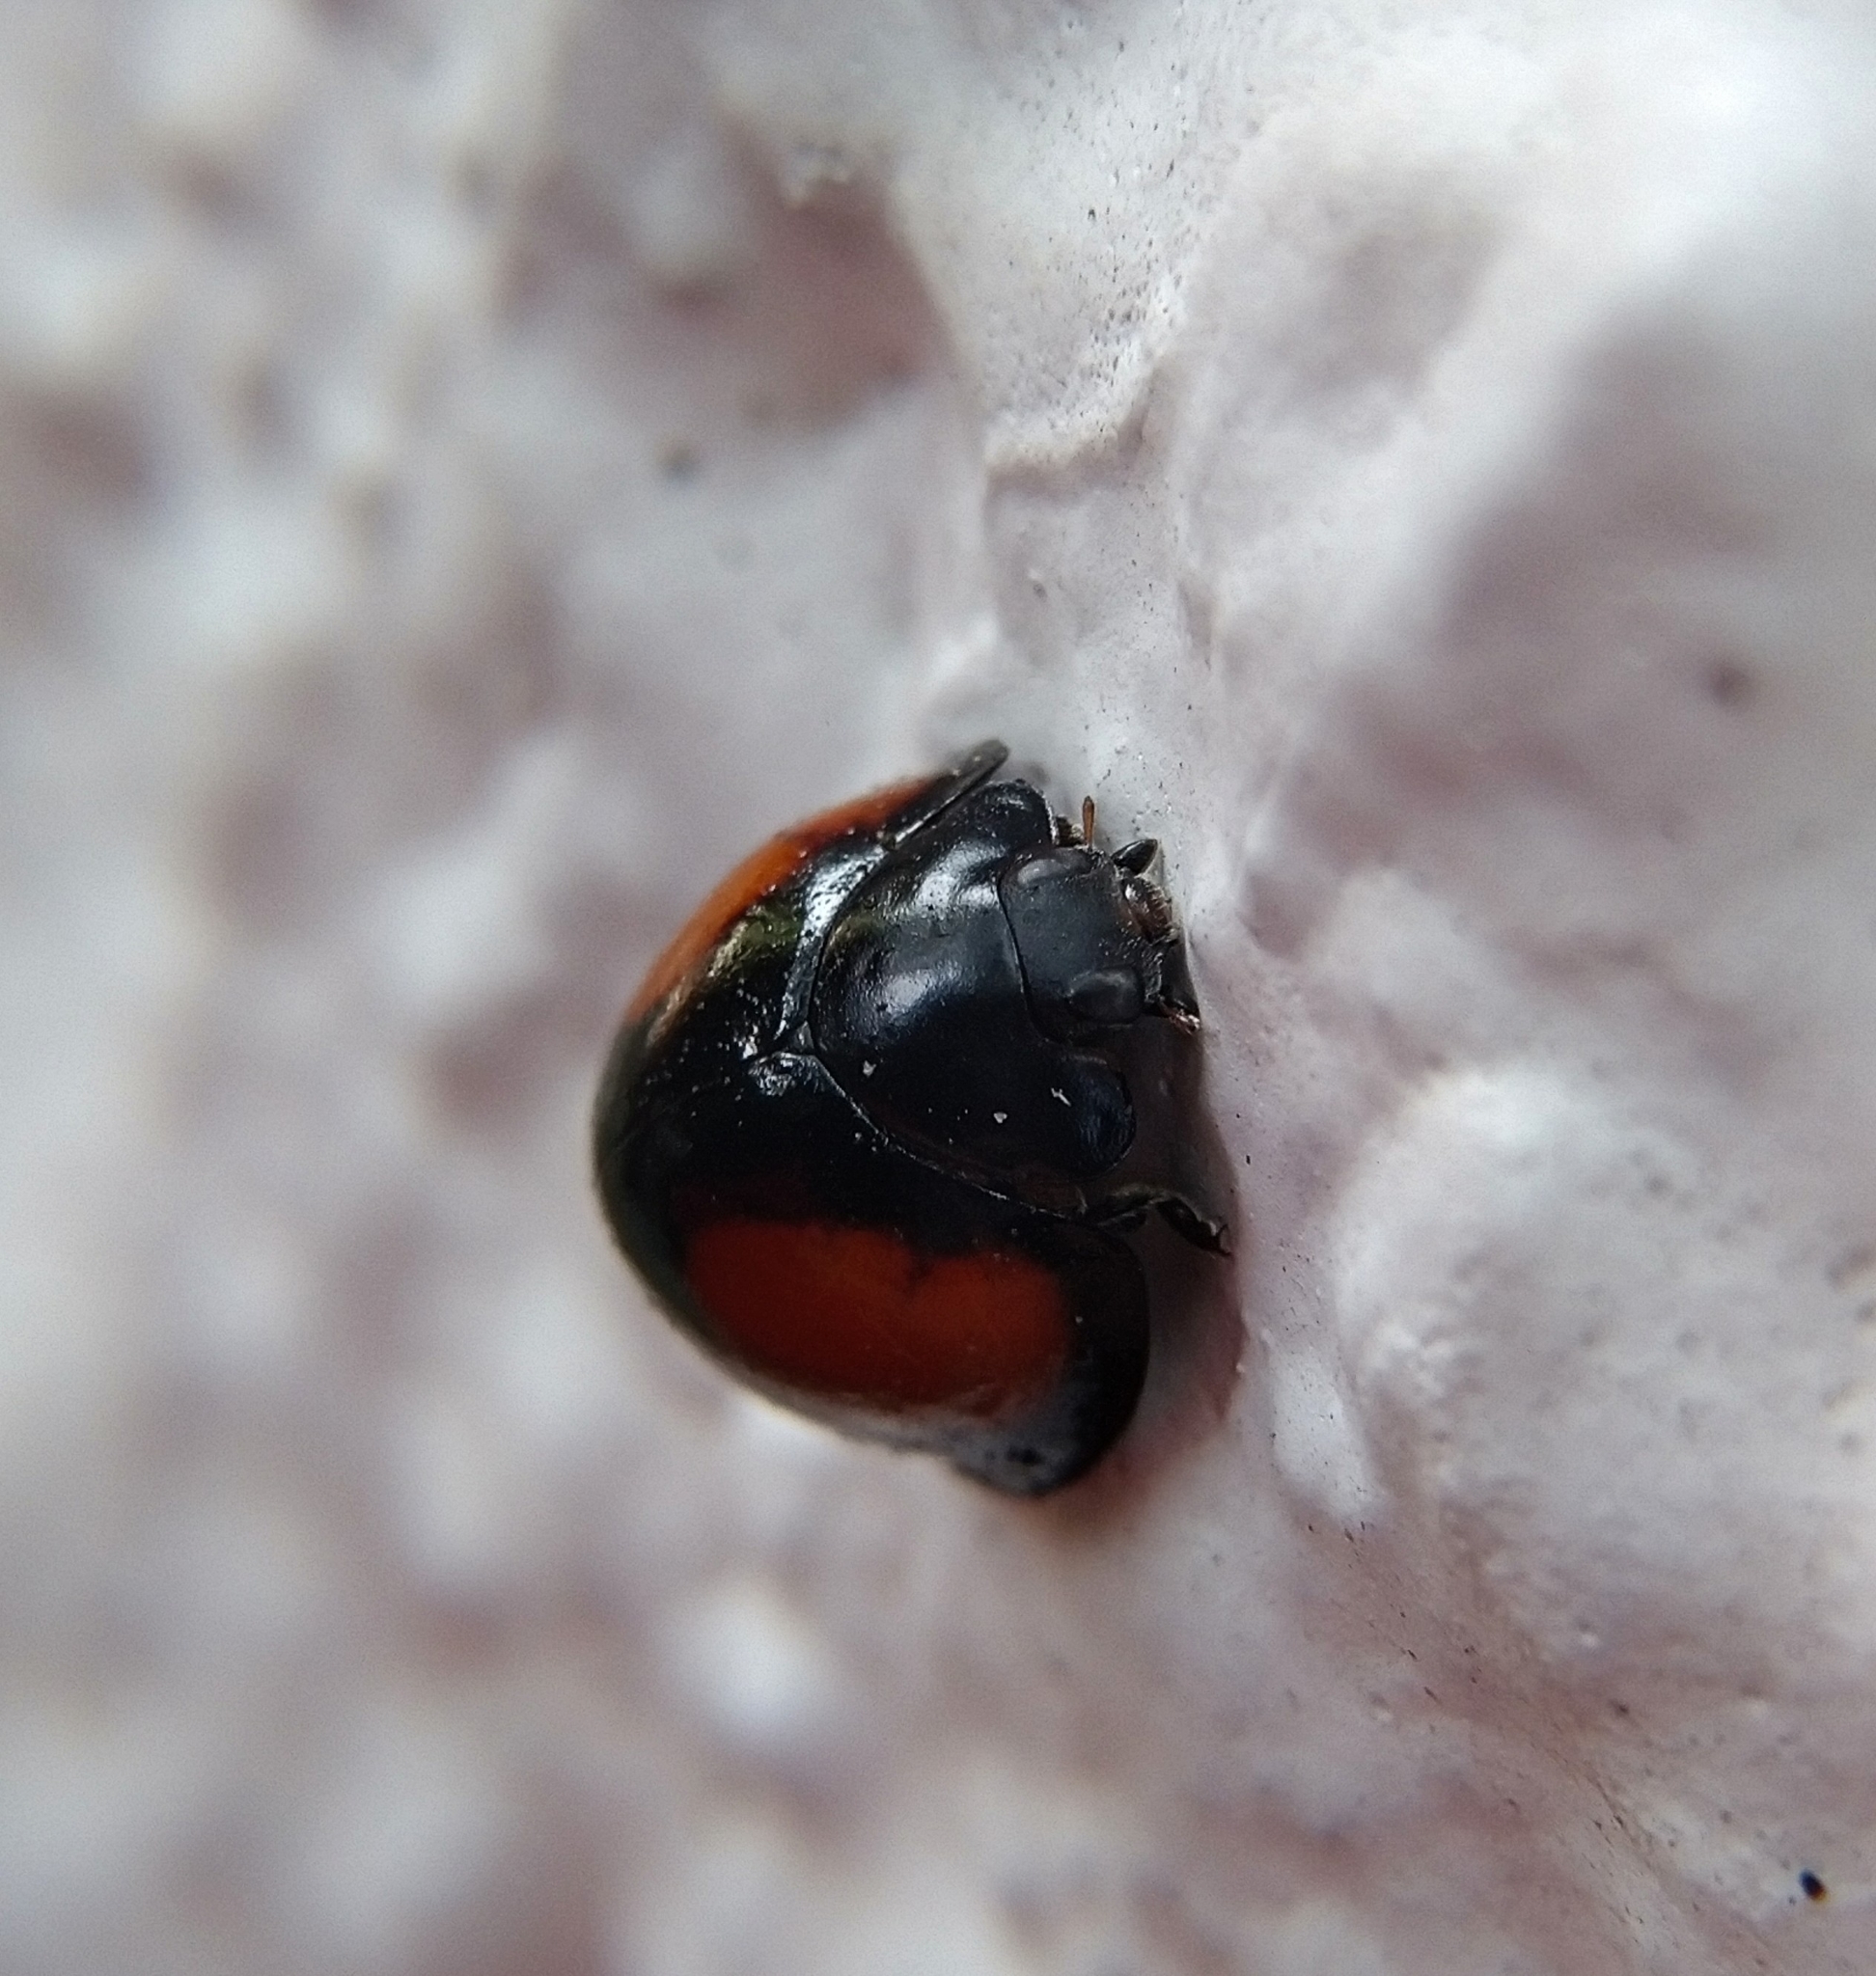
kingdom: Animalia
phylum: Arthropoda
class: Insecta
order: Coleoptera
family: Coccinellidae
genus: Axion
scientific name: Axion plagiatum
